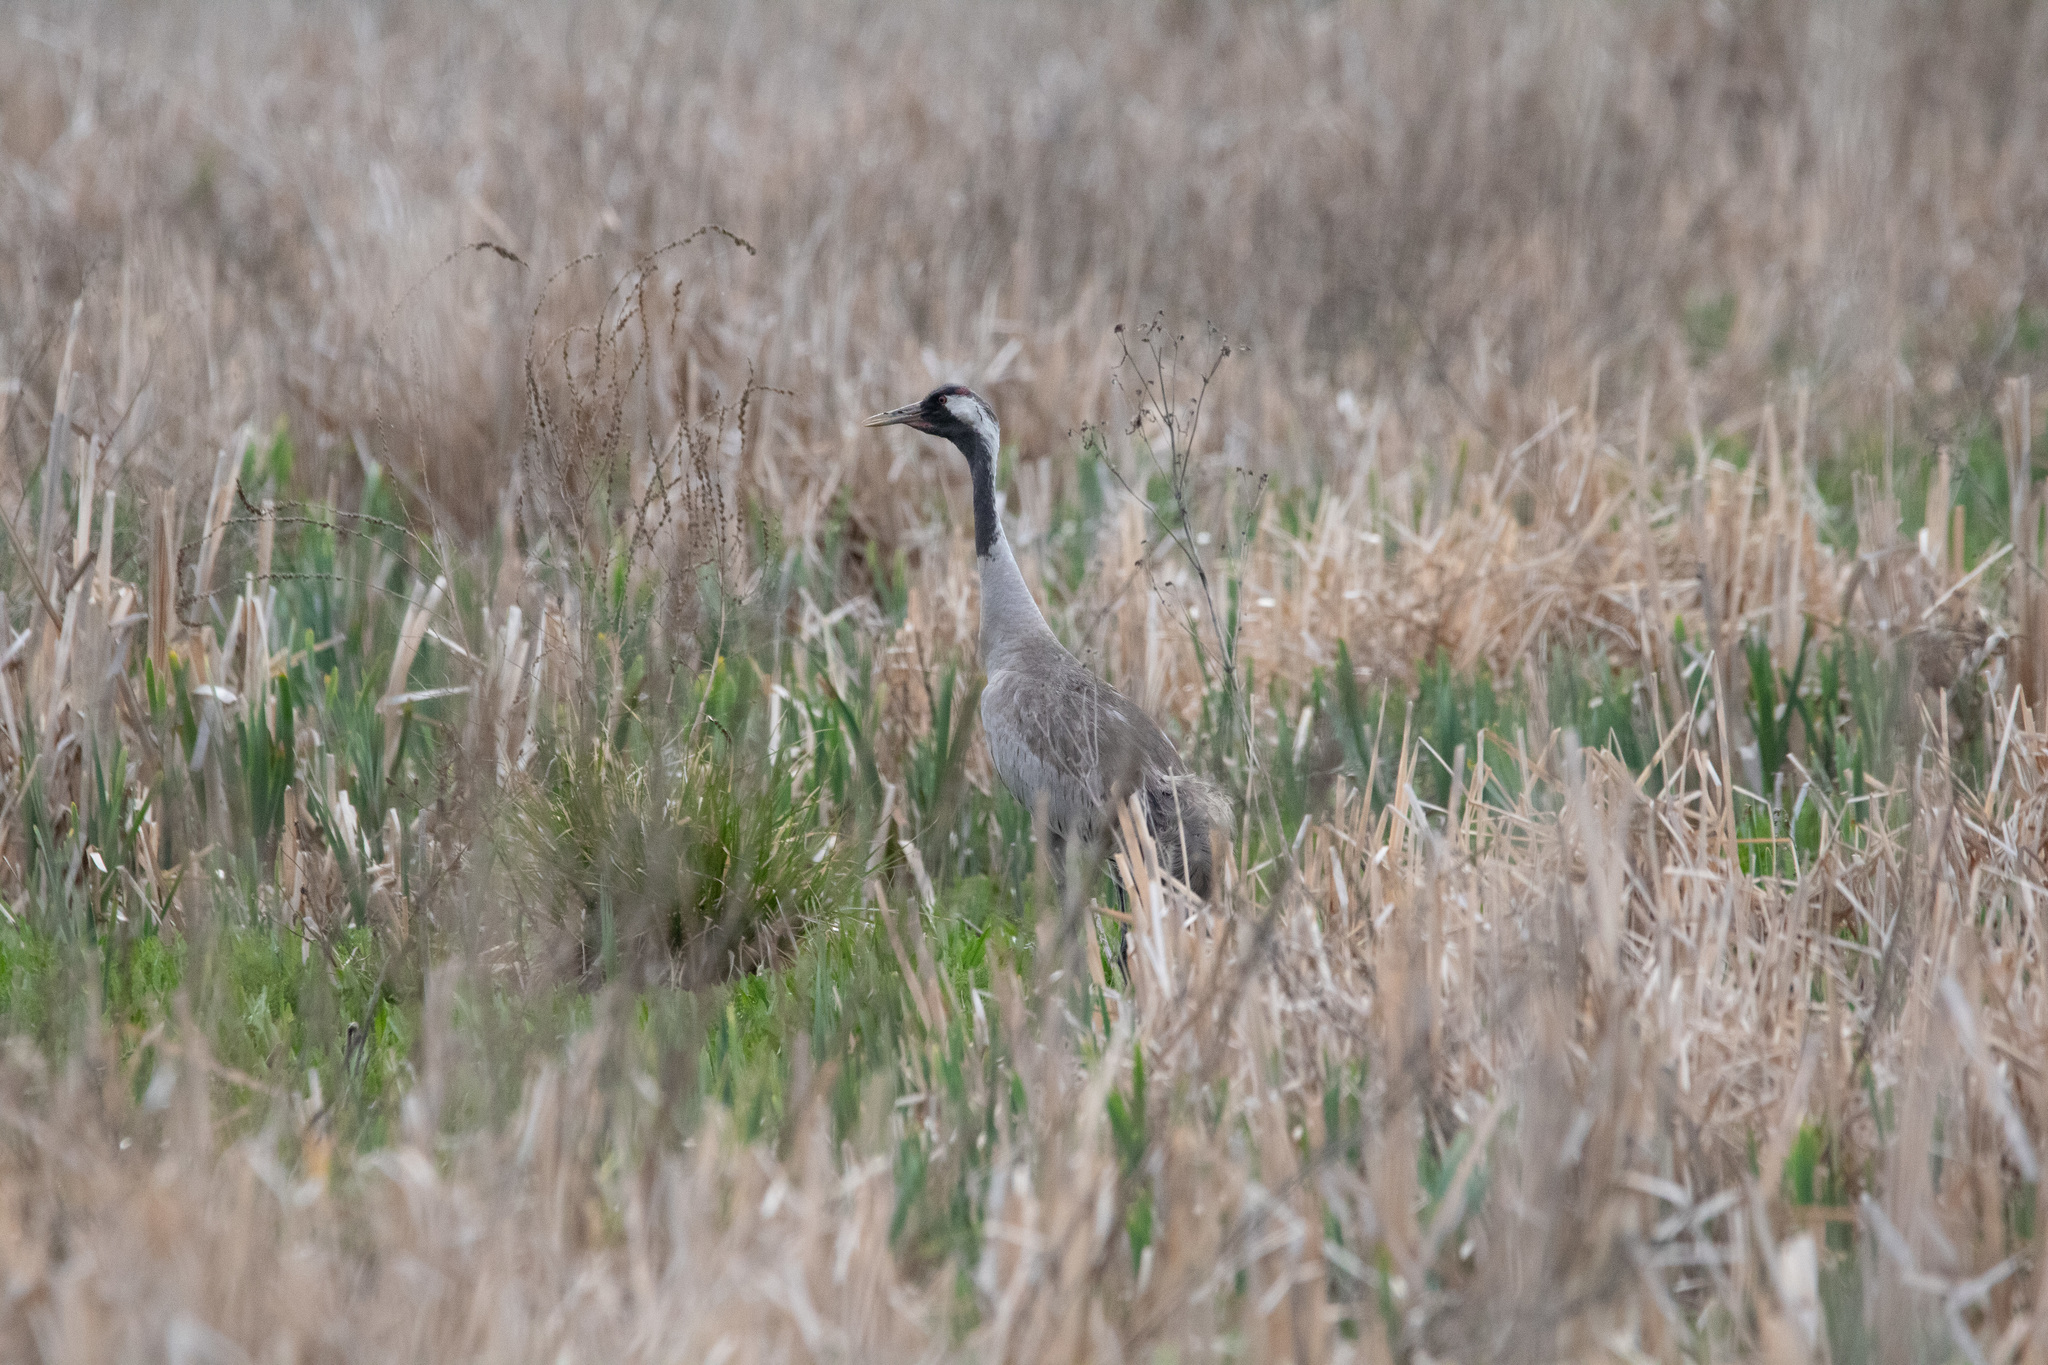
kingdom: Animalia
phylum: Chordata
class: Aves
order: Gruiformes
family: Gruidae
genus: Grus
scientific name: Grus grus
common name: Common crane
